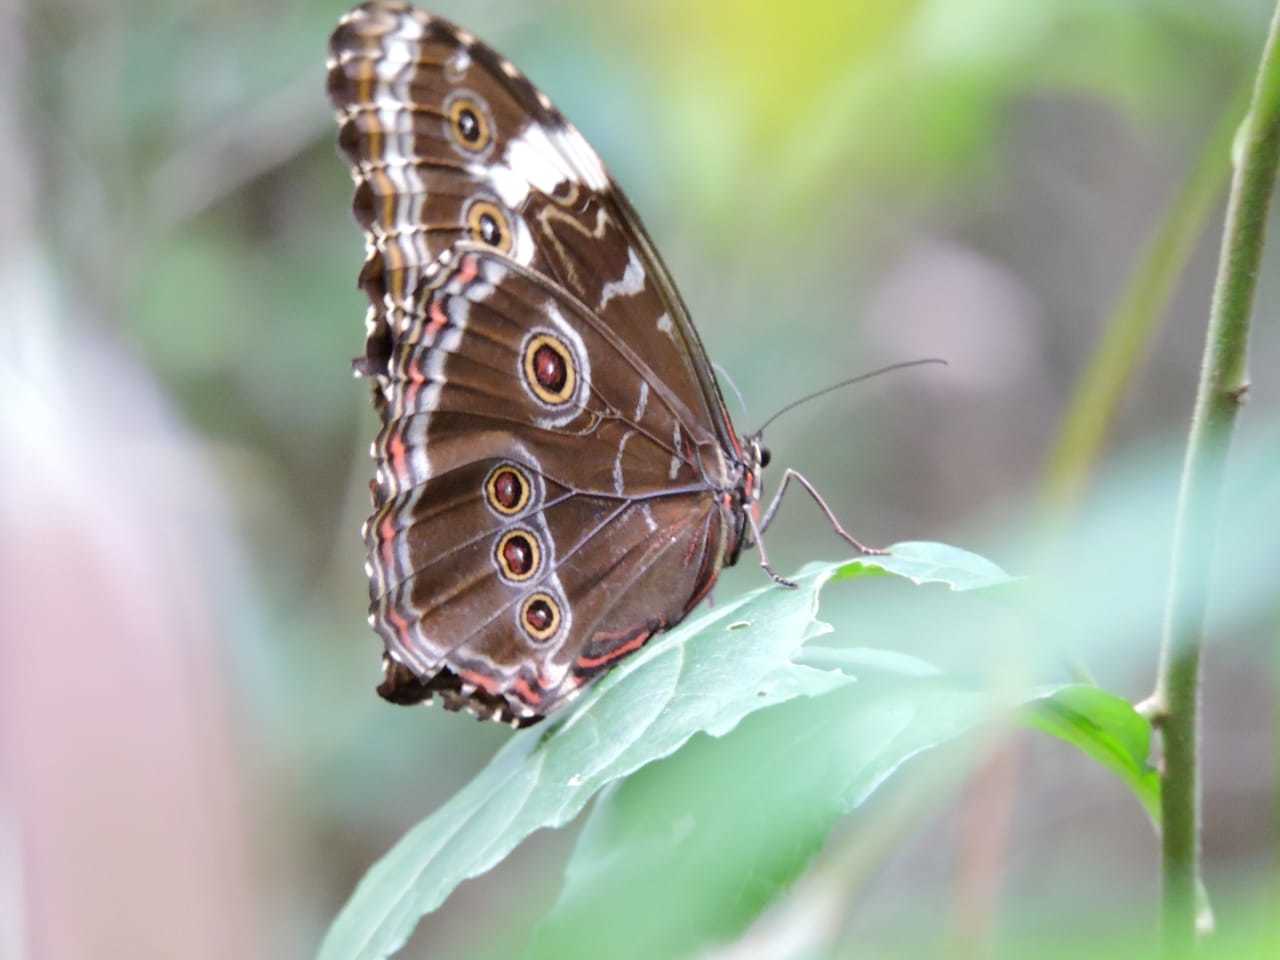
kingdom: Animalia
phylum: Arthropoda
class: Insecta
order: Lepidoptera
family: Nymphalidae
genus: Morpho
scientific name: Morpho helenor
